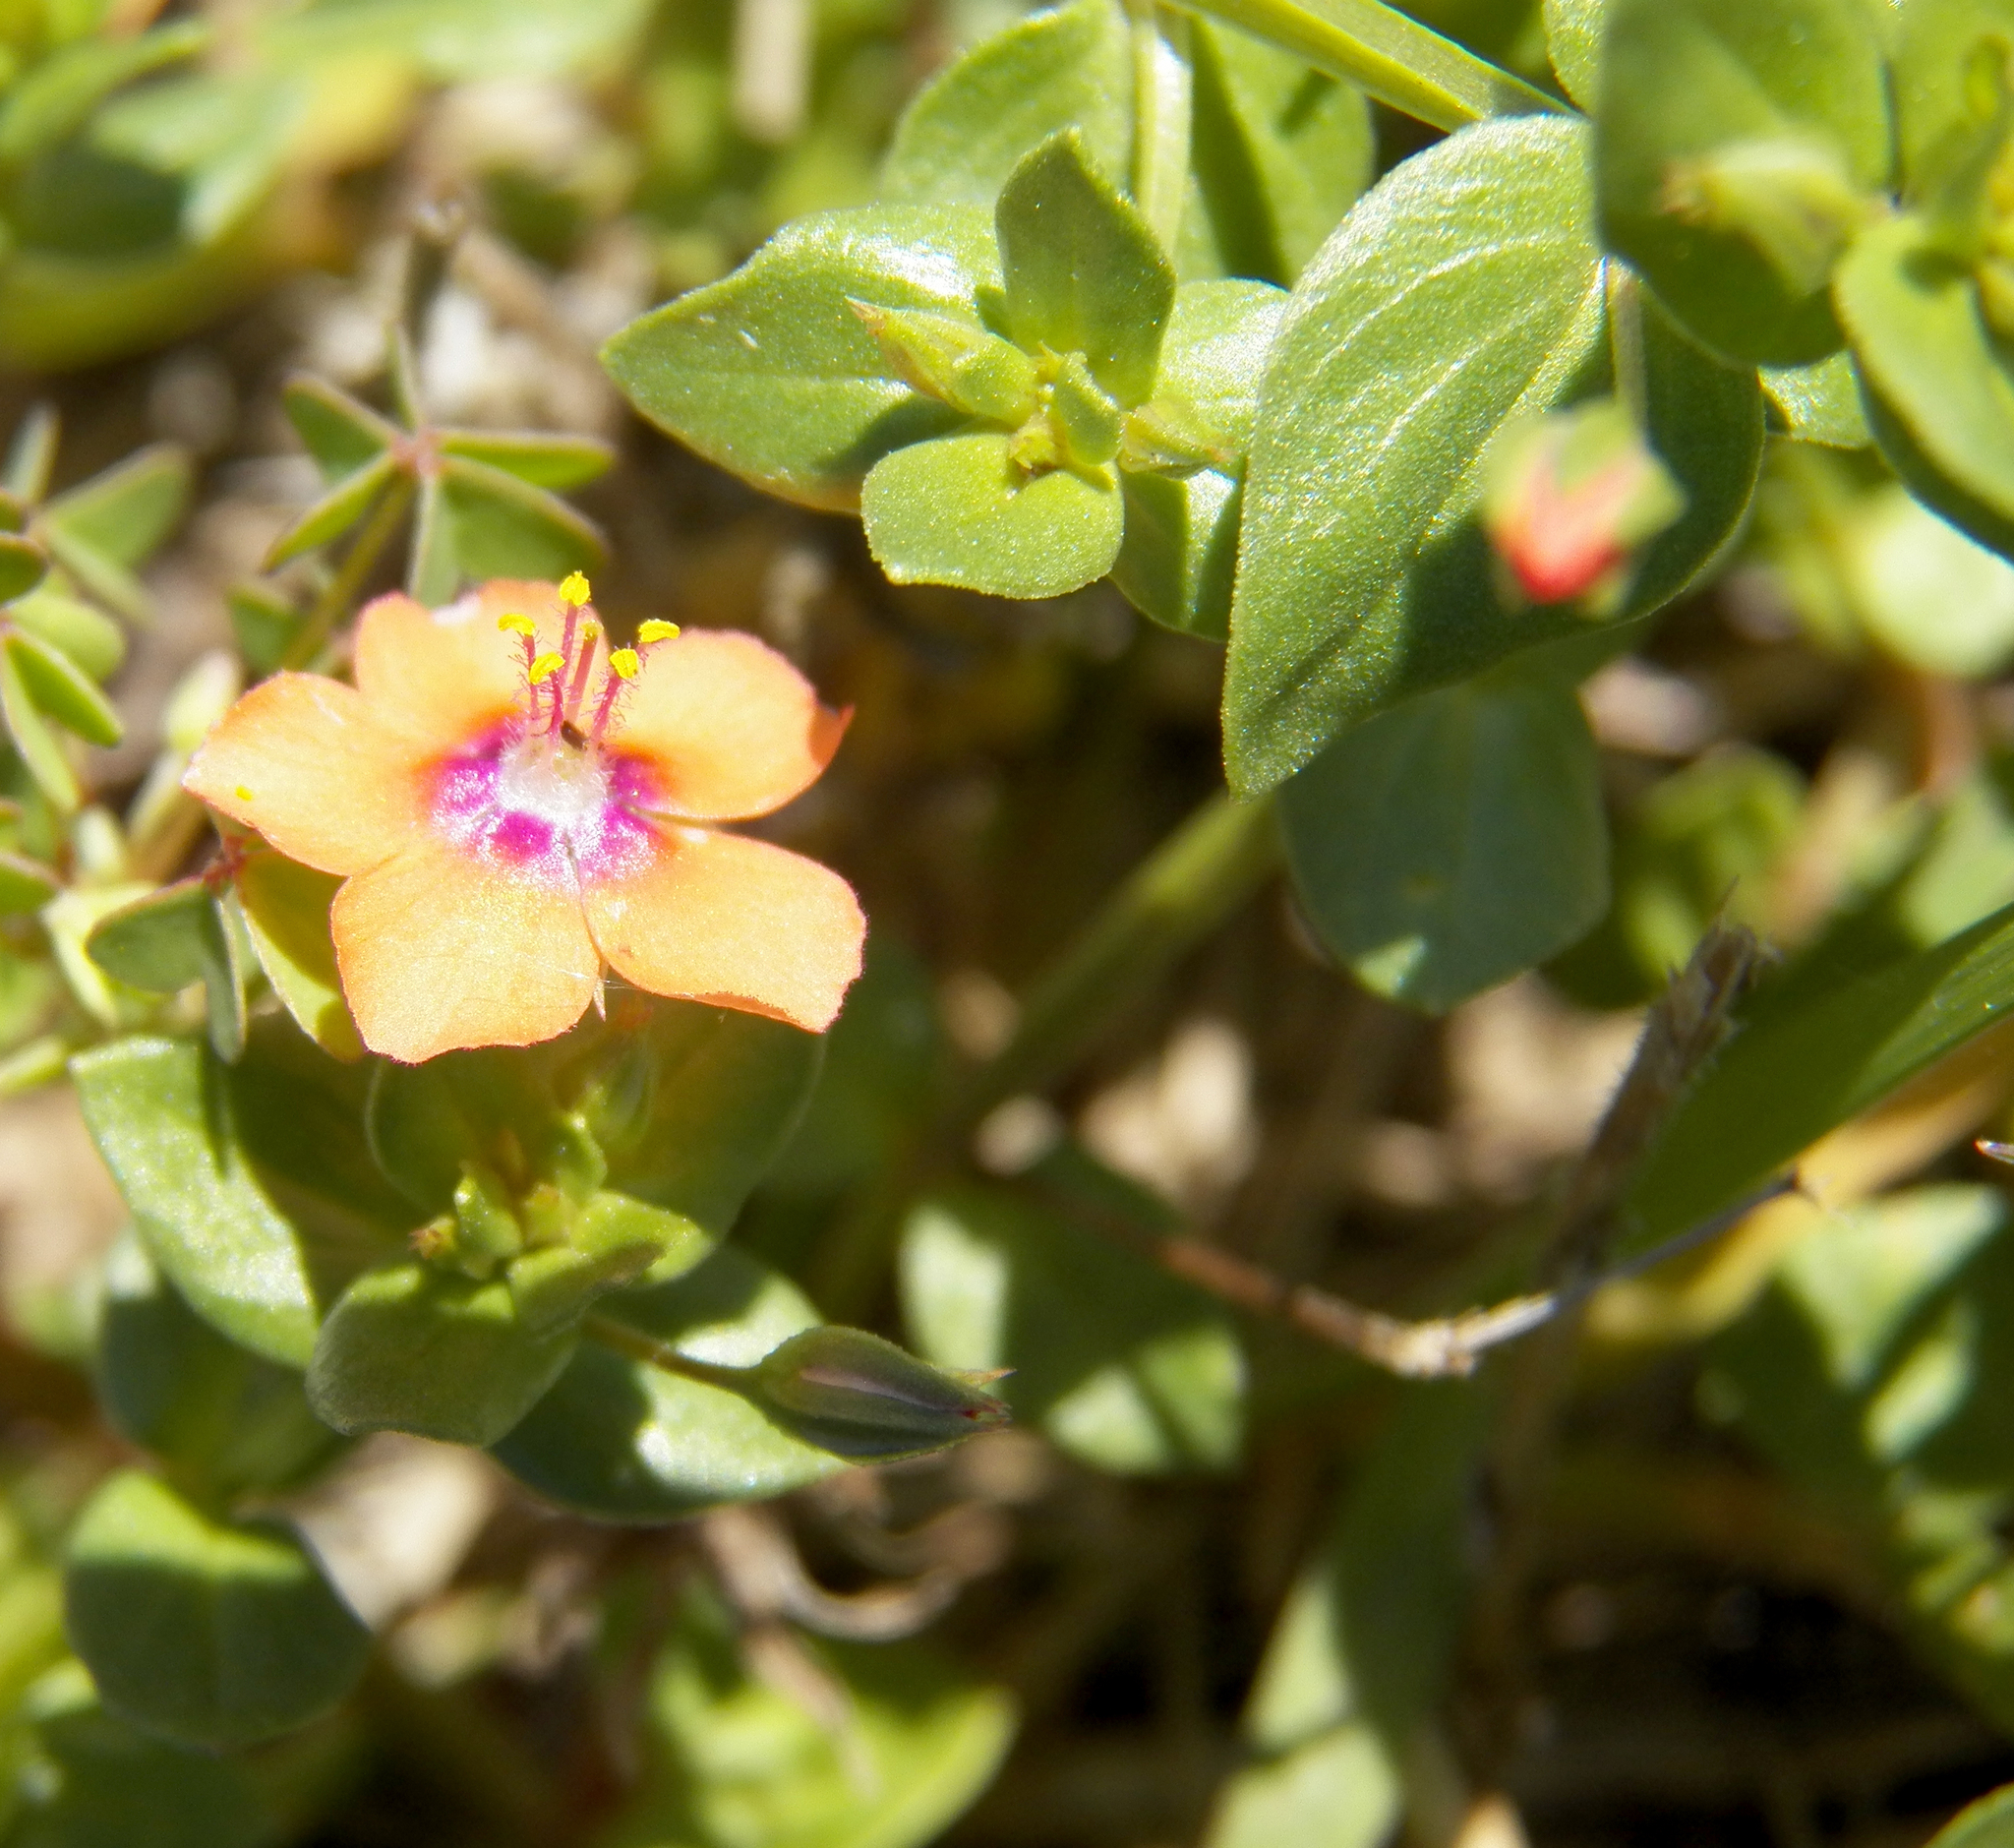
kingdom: Plantae
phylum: Tracheophyta
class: Magnoliopsida
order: Ericales
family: Primulaceae
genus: Lysimachia
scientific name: Lysimachia arvensis
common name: Scarlet pimpernel
